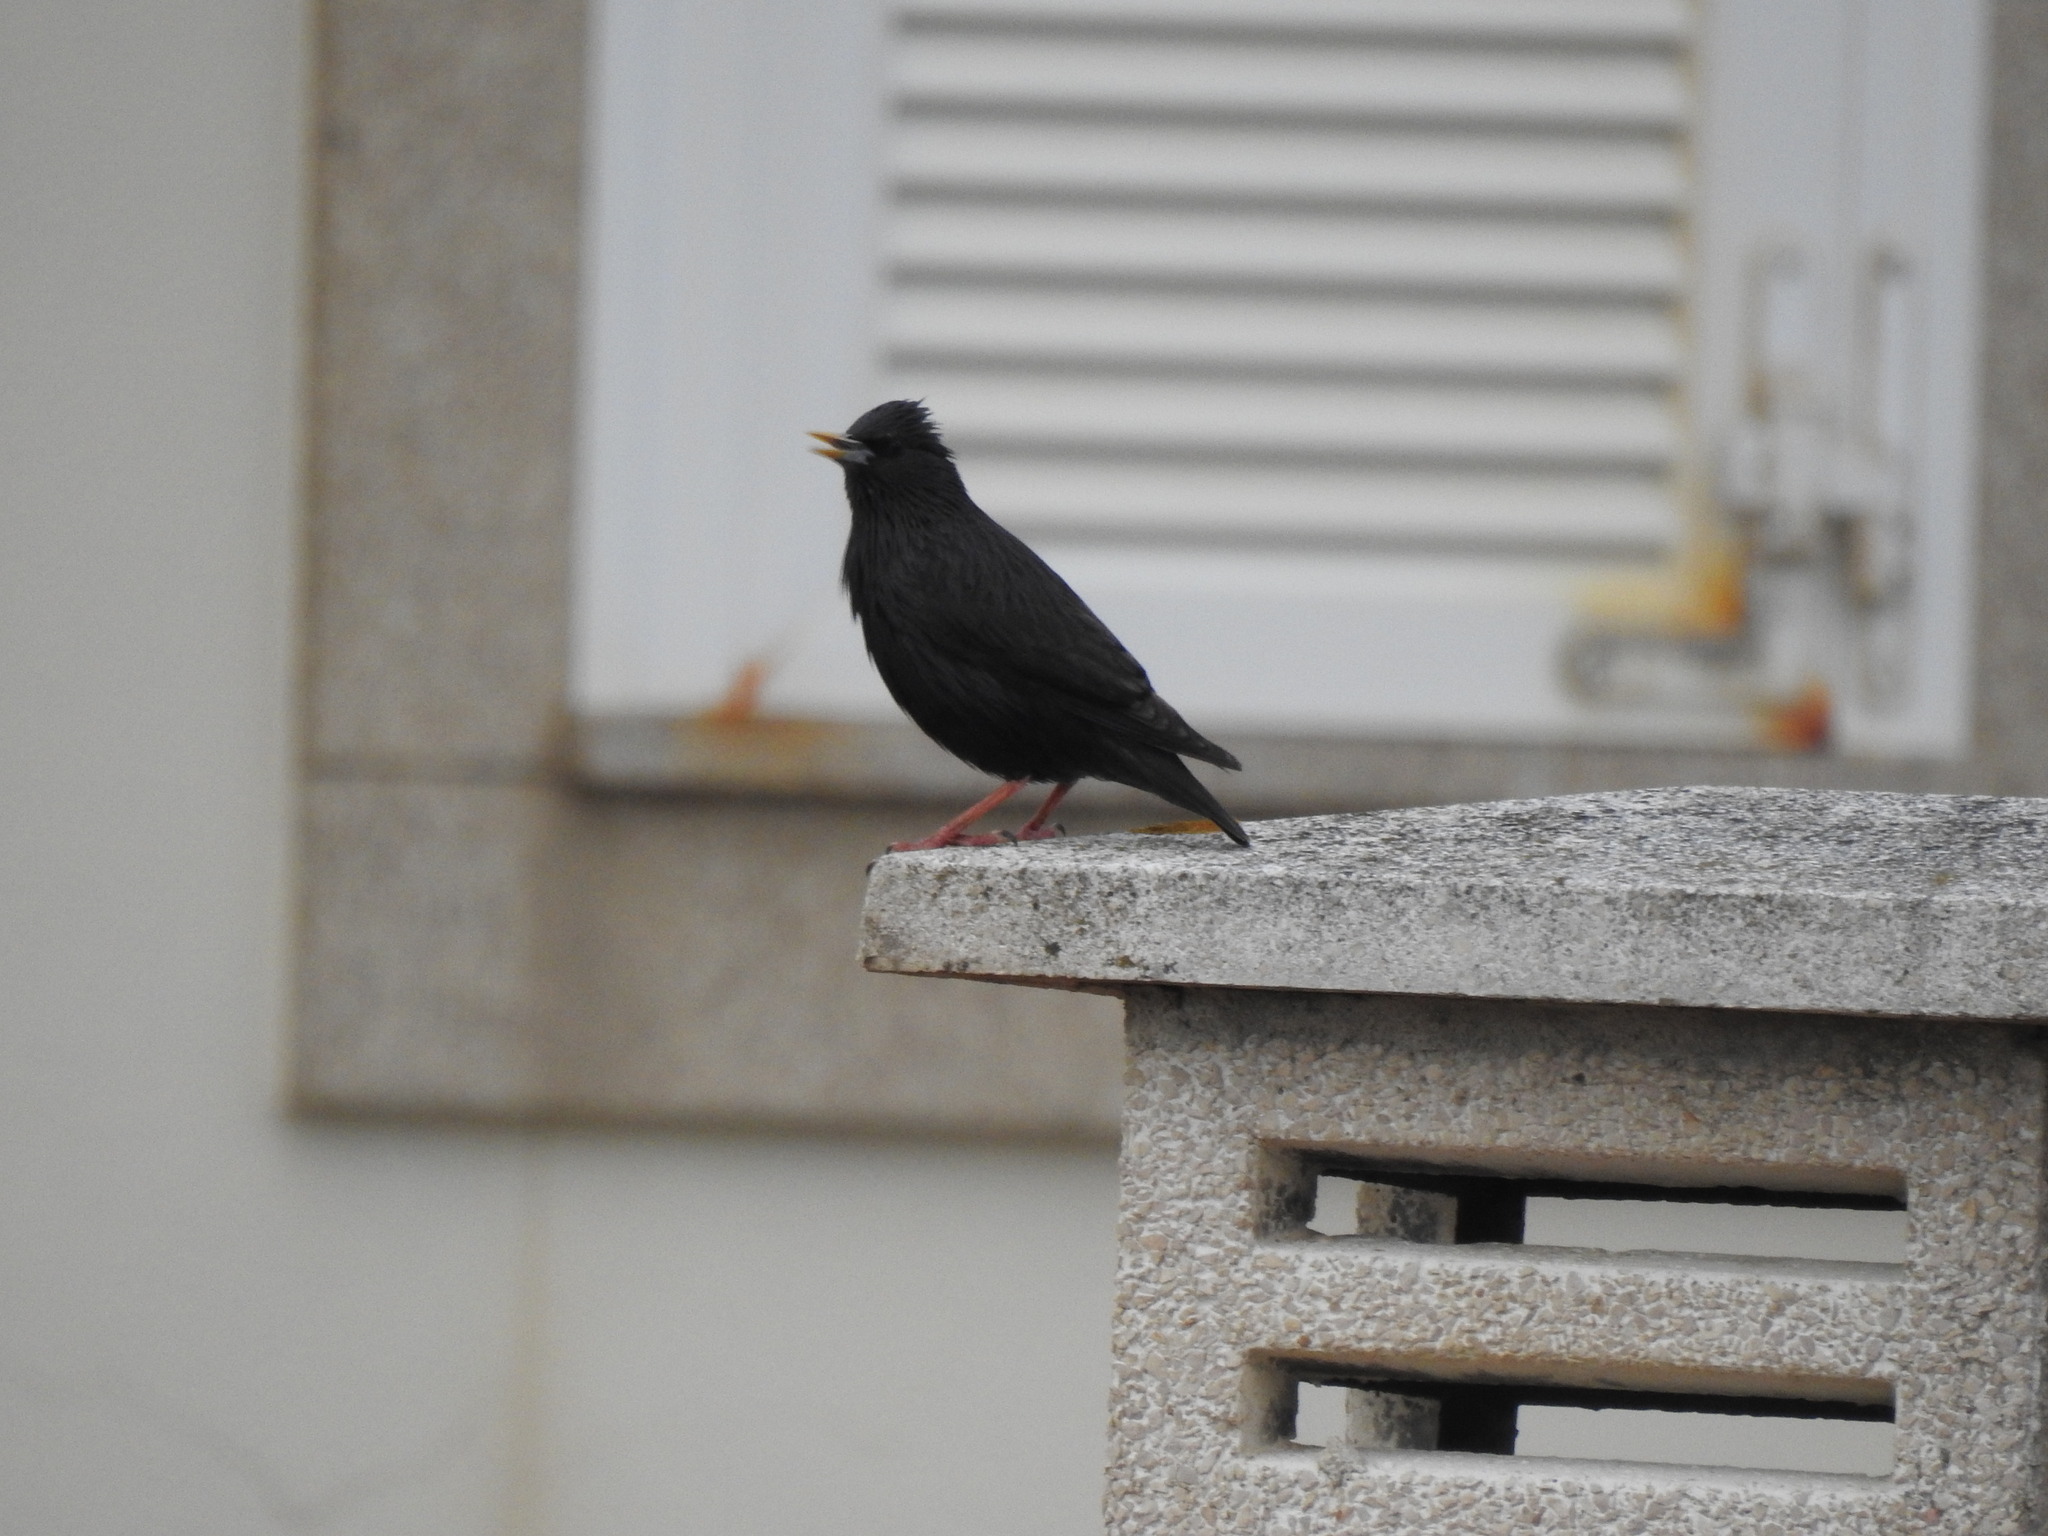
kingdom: Animalia
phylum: Chordata
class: Aves
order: Passeriformes
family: Sturnidae
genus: Sturnus
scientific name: Sturnus unicolor
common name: Spotless starling
